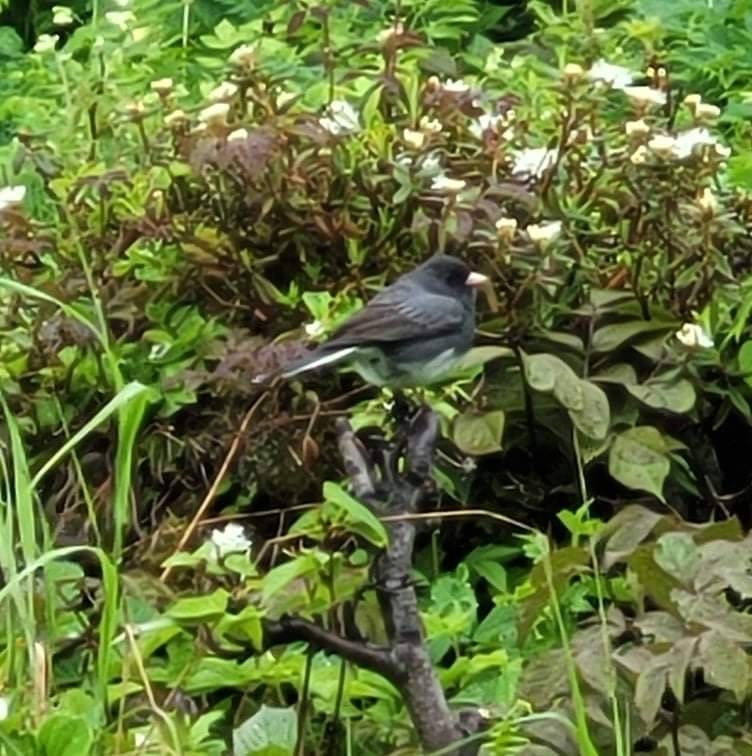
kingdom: Animalia
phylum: Chordata
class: Aves
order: Passeriformes
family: Passerellidae
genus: Junco
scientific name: Junco hyemalis
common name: Dark-eyed junco
